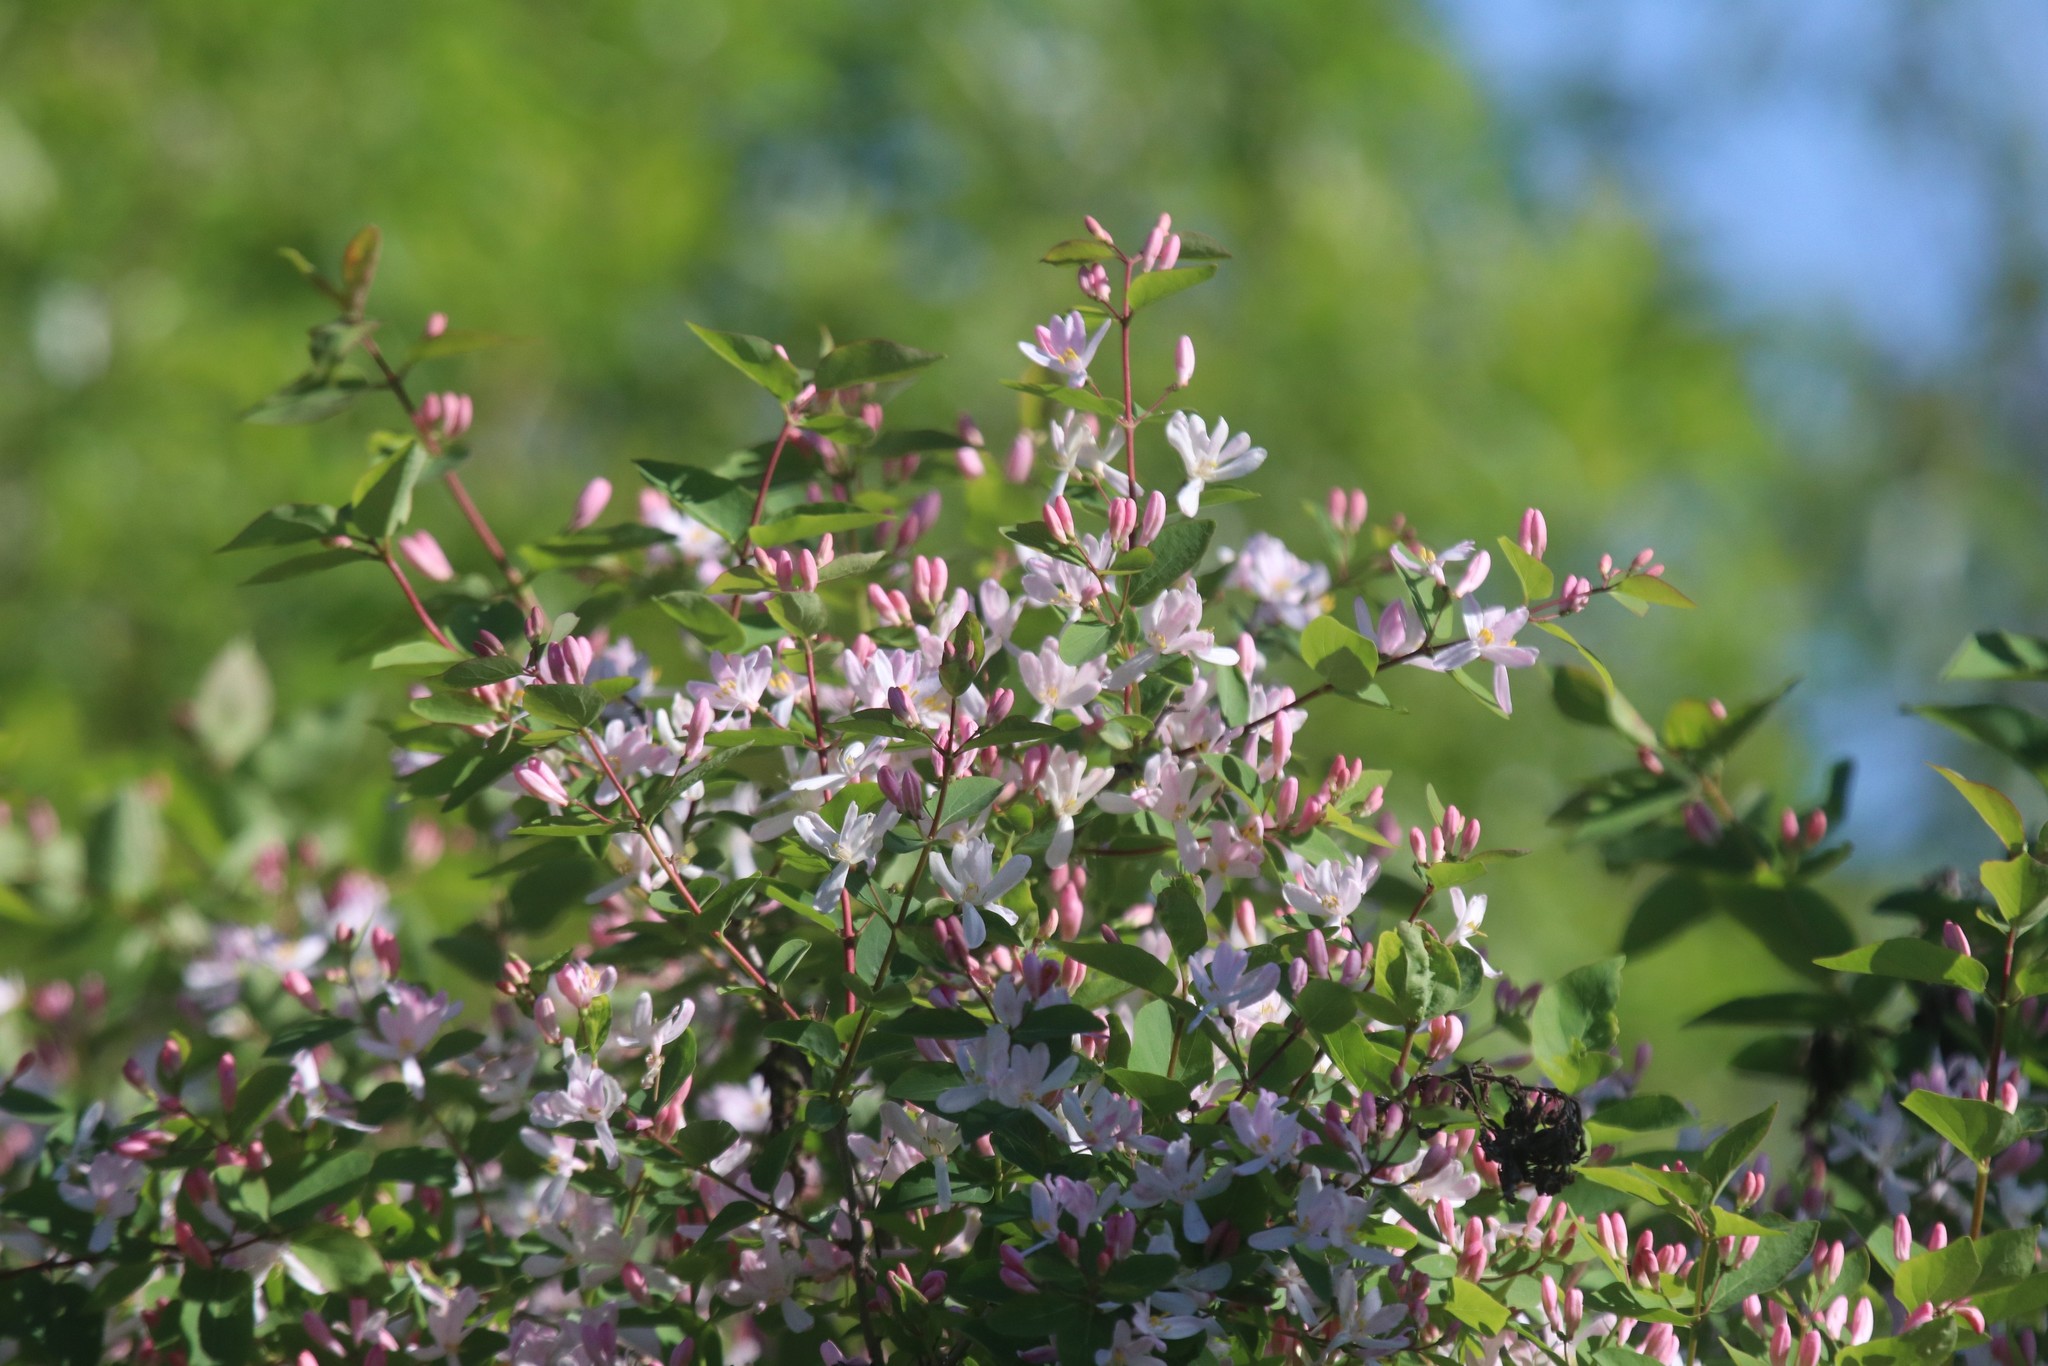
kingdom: Plantae
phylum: Tracheophyta
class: Magnoliopsida
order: Dipsacales
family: Caprifoliaceae
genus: Lonicera
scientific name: Lonicera tatarica
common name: Tatarian honeysuckle
